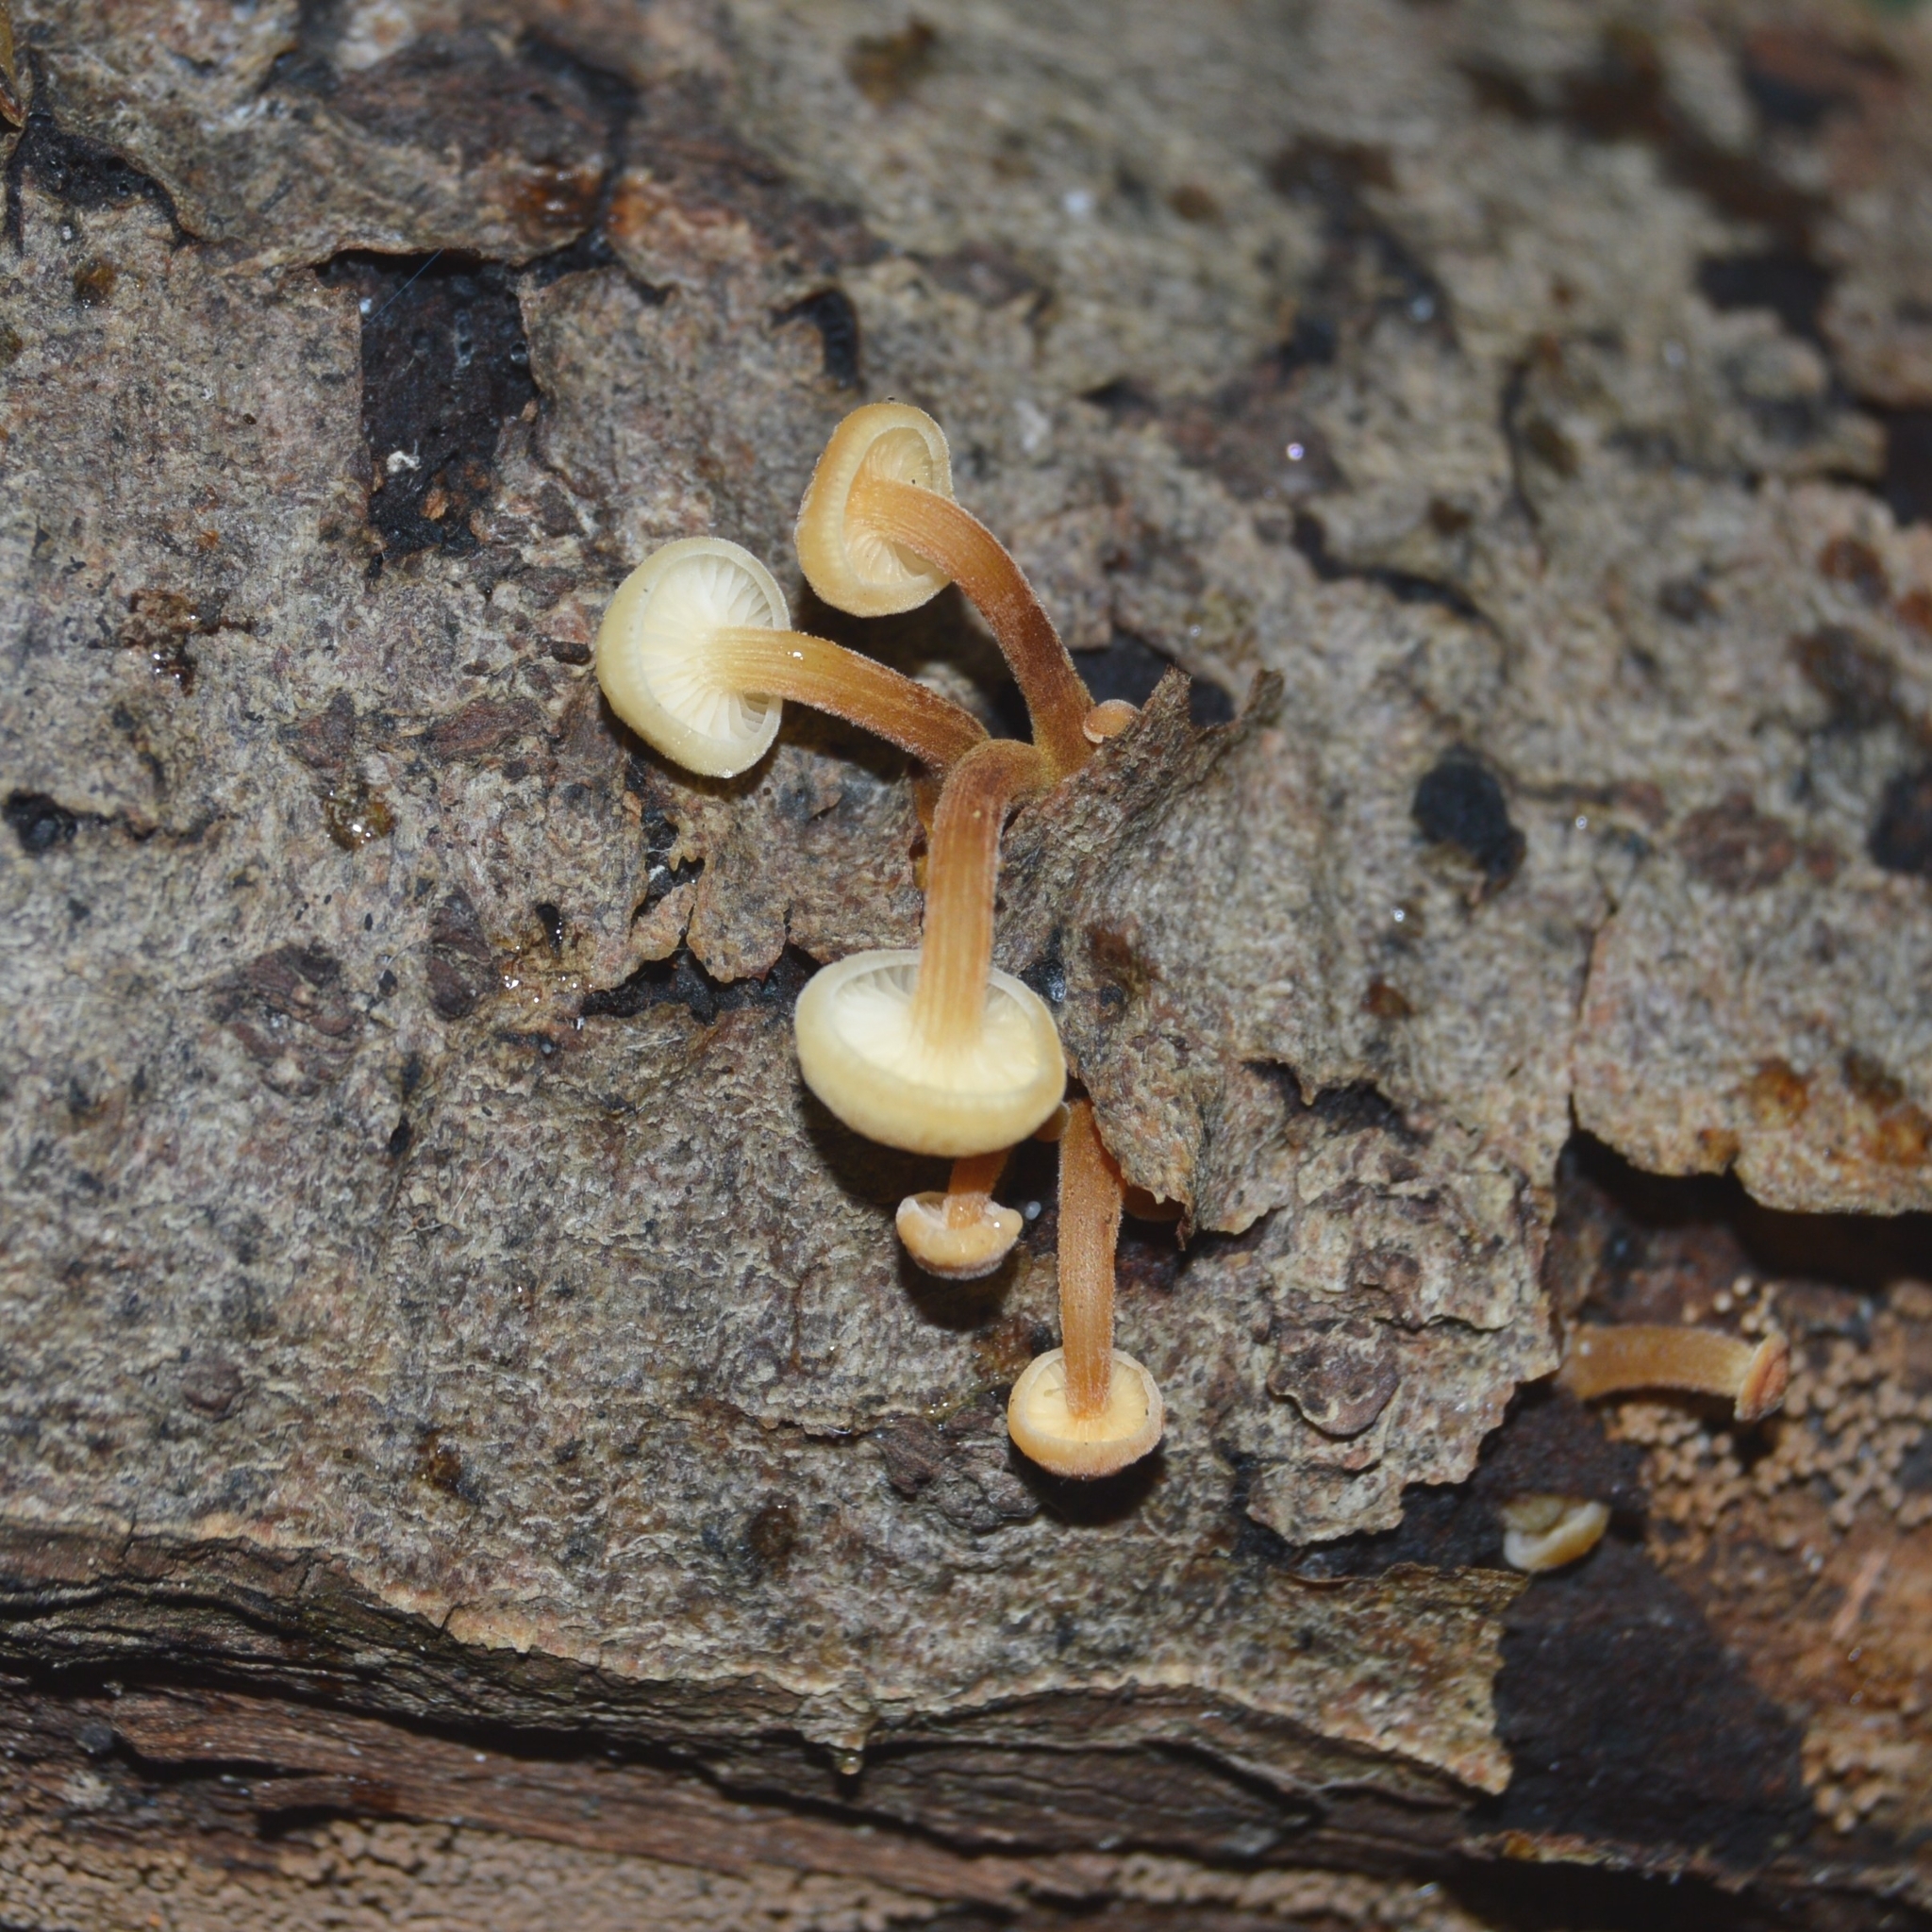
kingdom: Fungi
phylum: Basidiomycota
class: Agaricomycetes
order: Agaricales
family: Physalacriaceae
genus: Flammulina
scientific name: Flammulina
